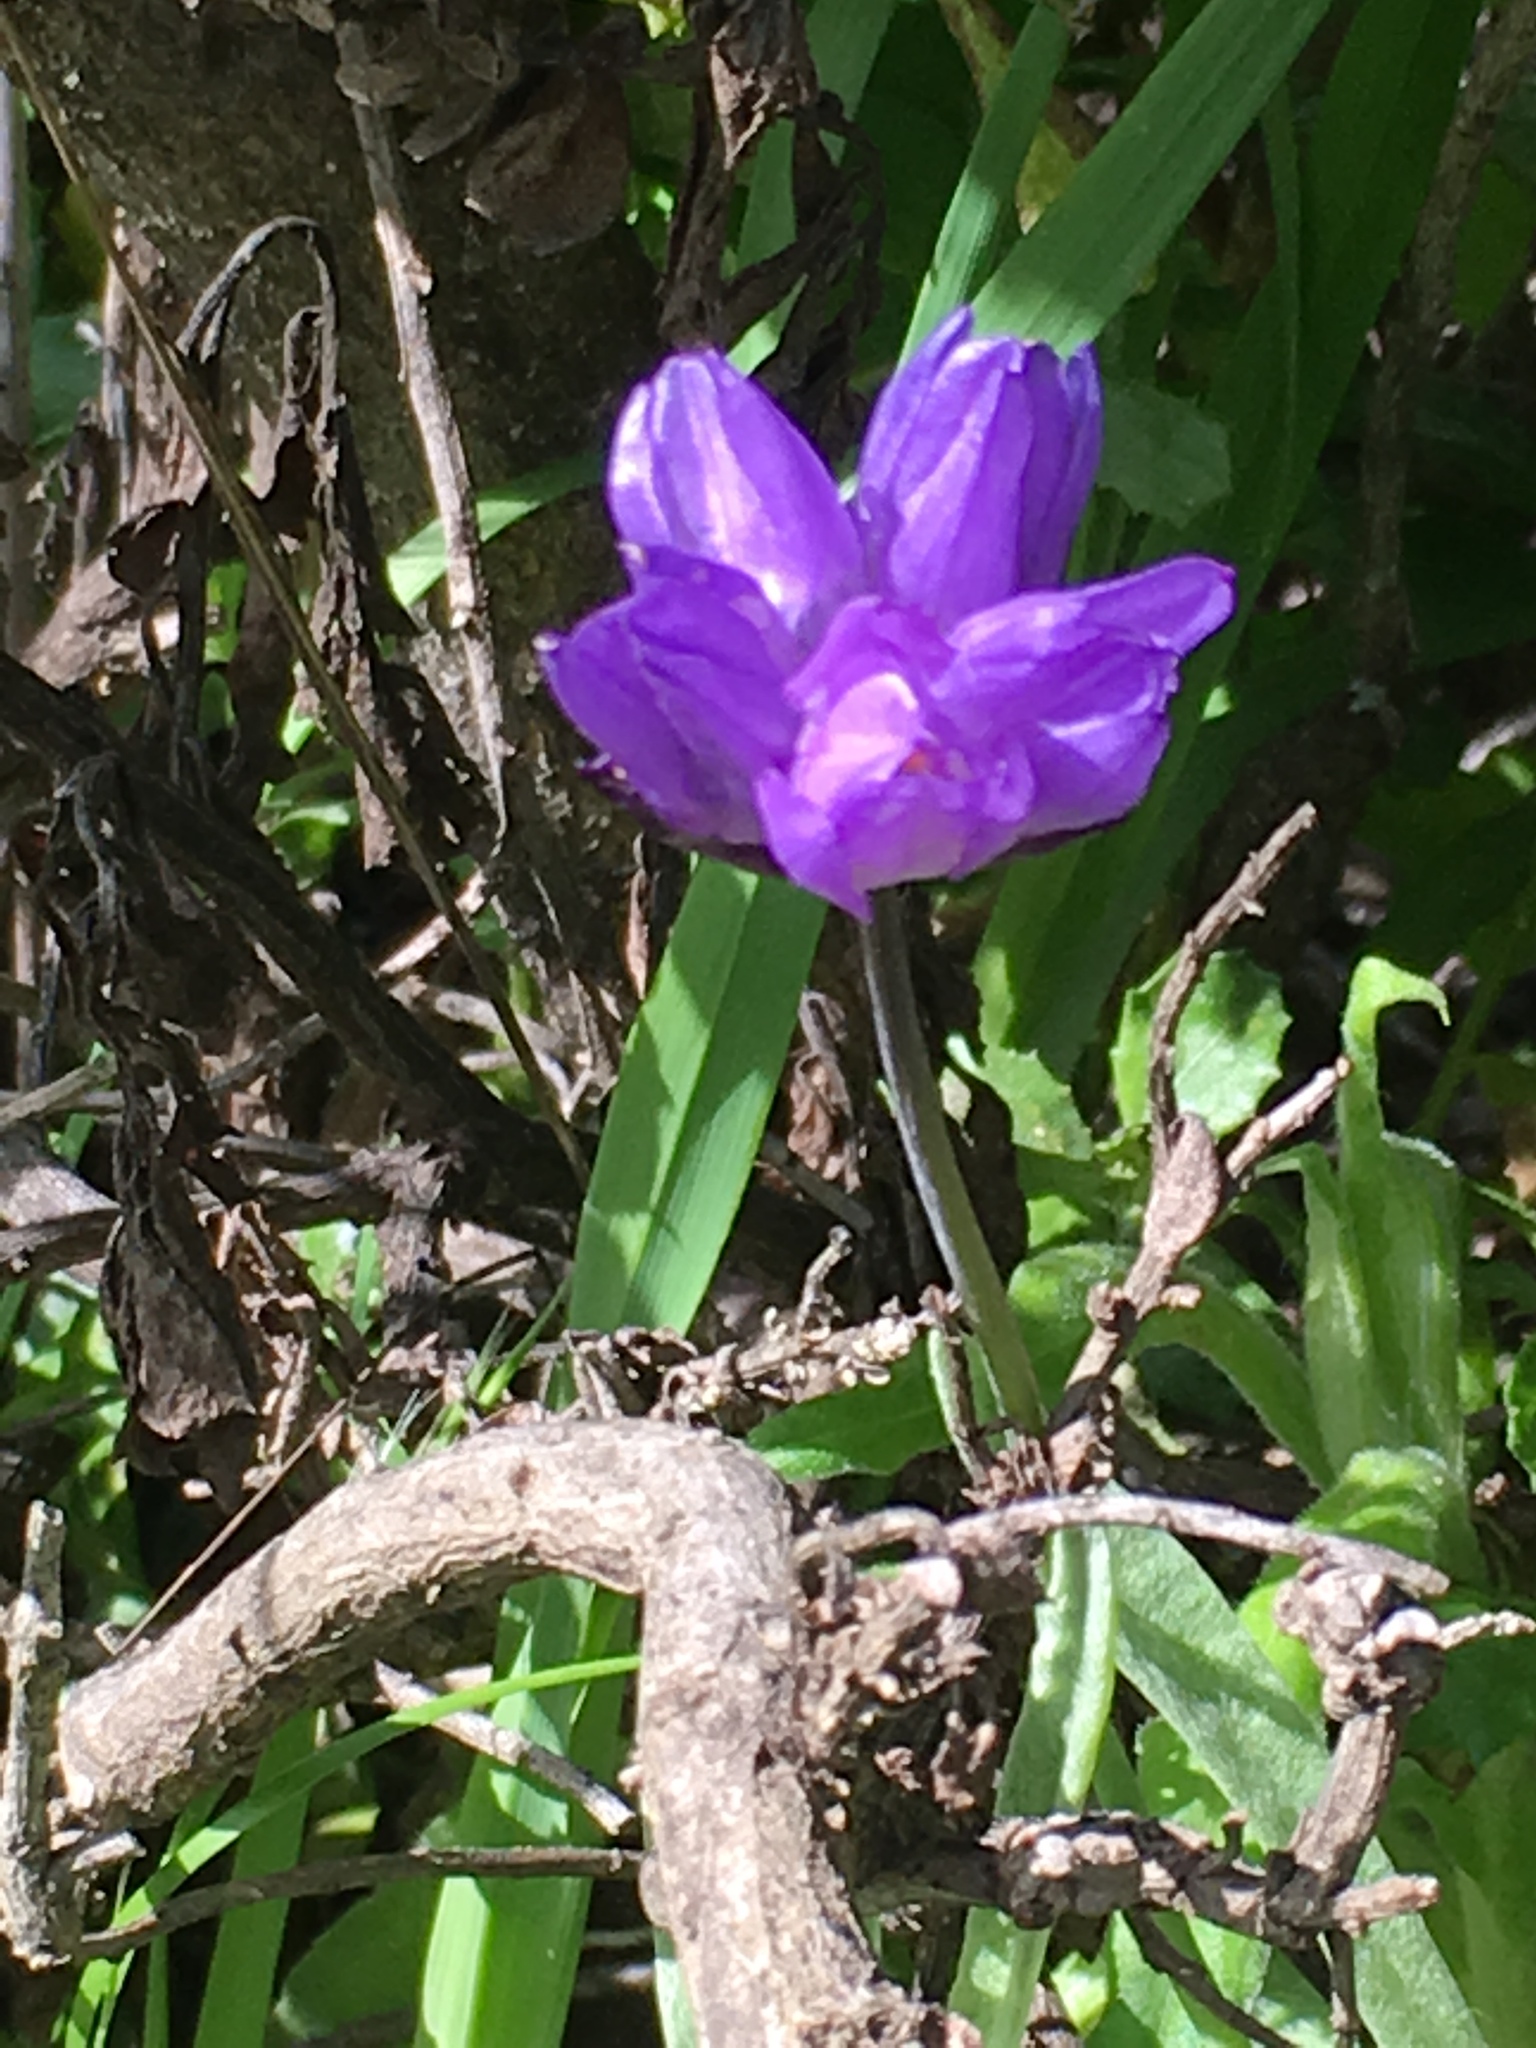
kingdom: Plantae
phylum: Tracheophyta
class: Liliopsida
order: Asparagales
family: Asparagaceae
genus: Dipterostemon
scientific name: Dipterostemon capitatus
